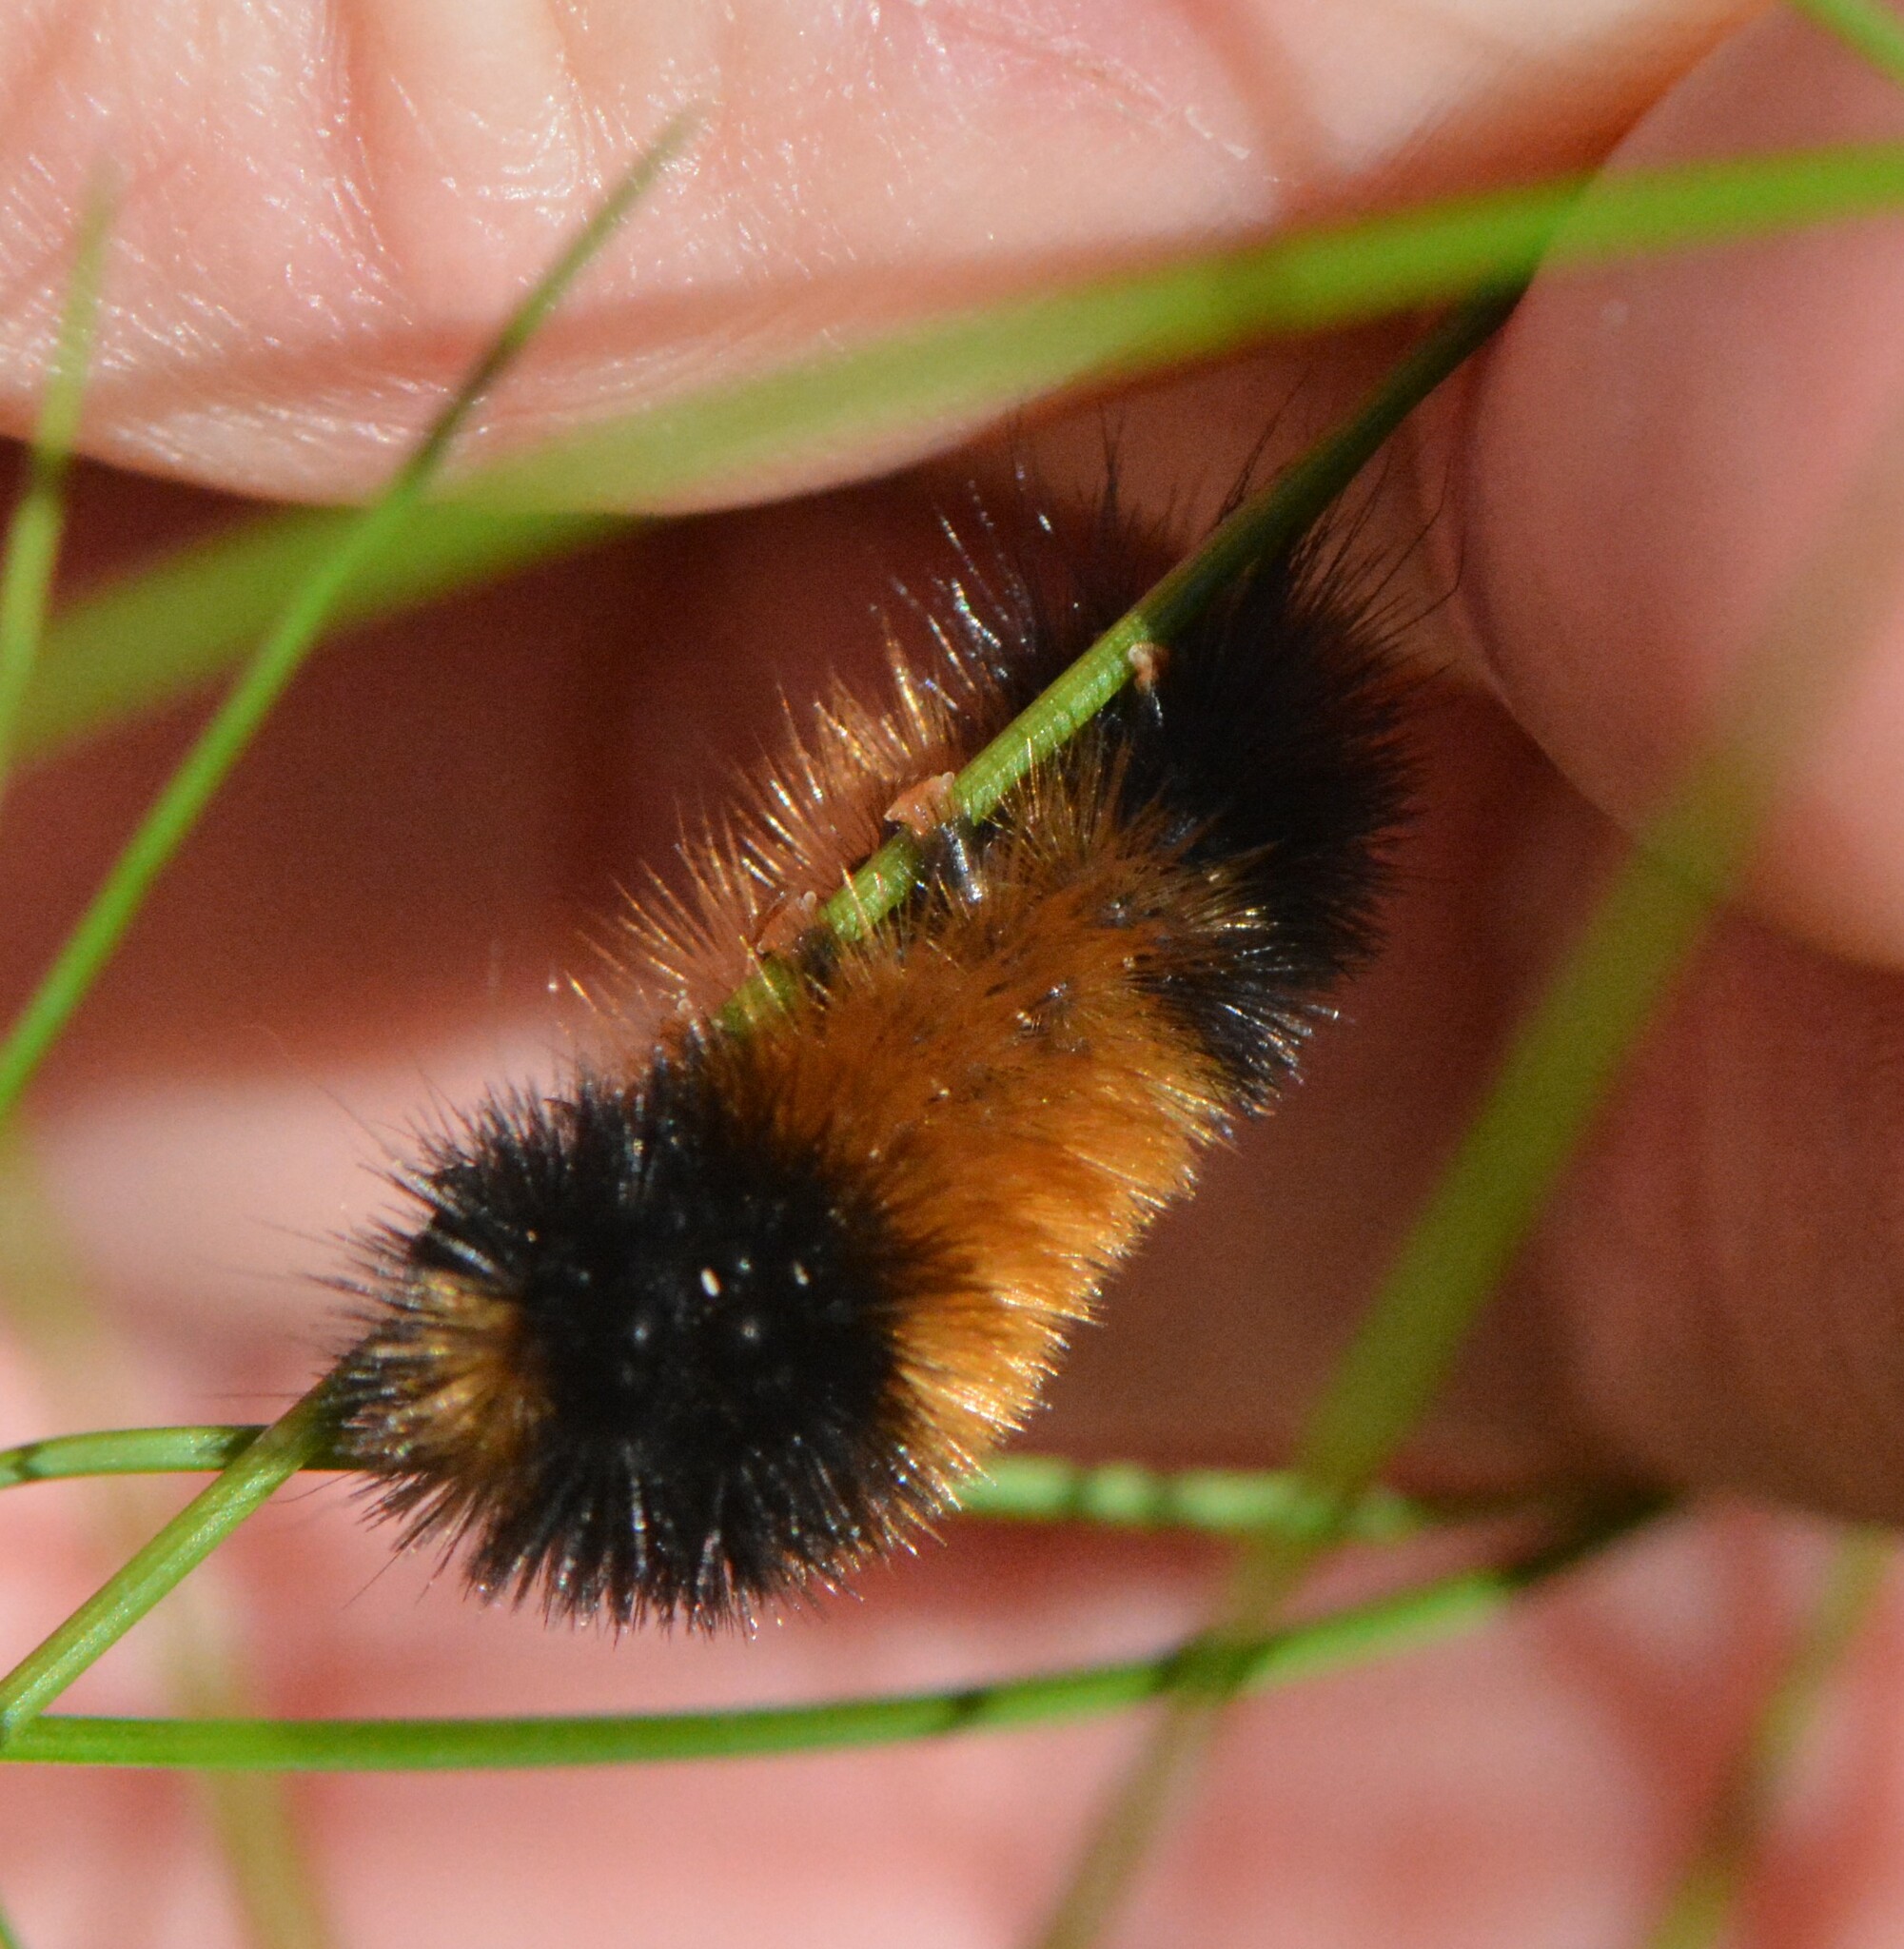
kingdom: Animalia
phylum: Arthropoda
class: Insecta
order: Lepidoptera
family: Erebidae
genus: Pyrrharctia
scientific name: Pyrrharctia isabella
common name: Isabella tiger moth
